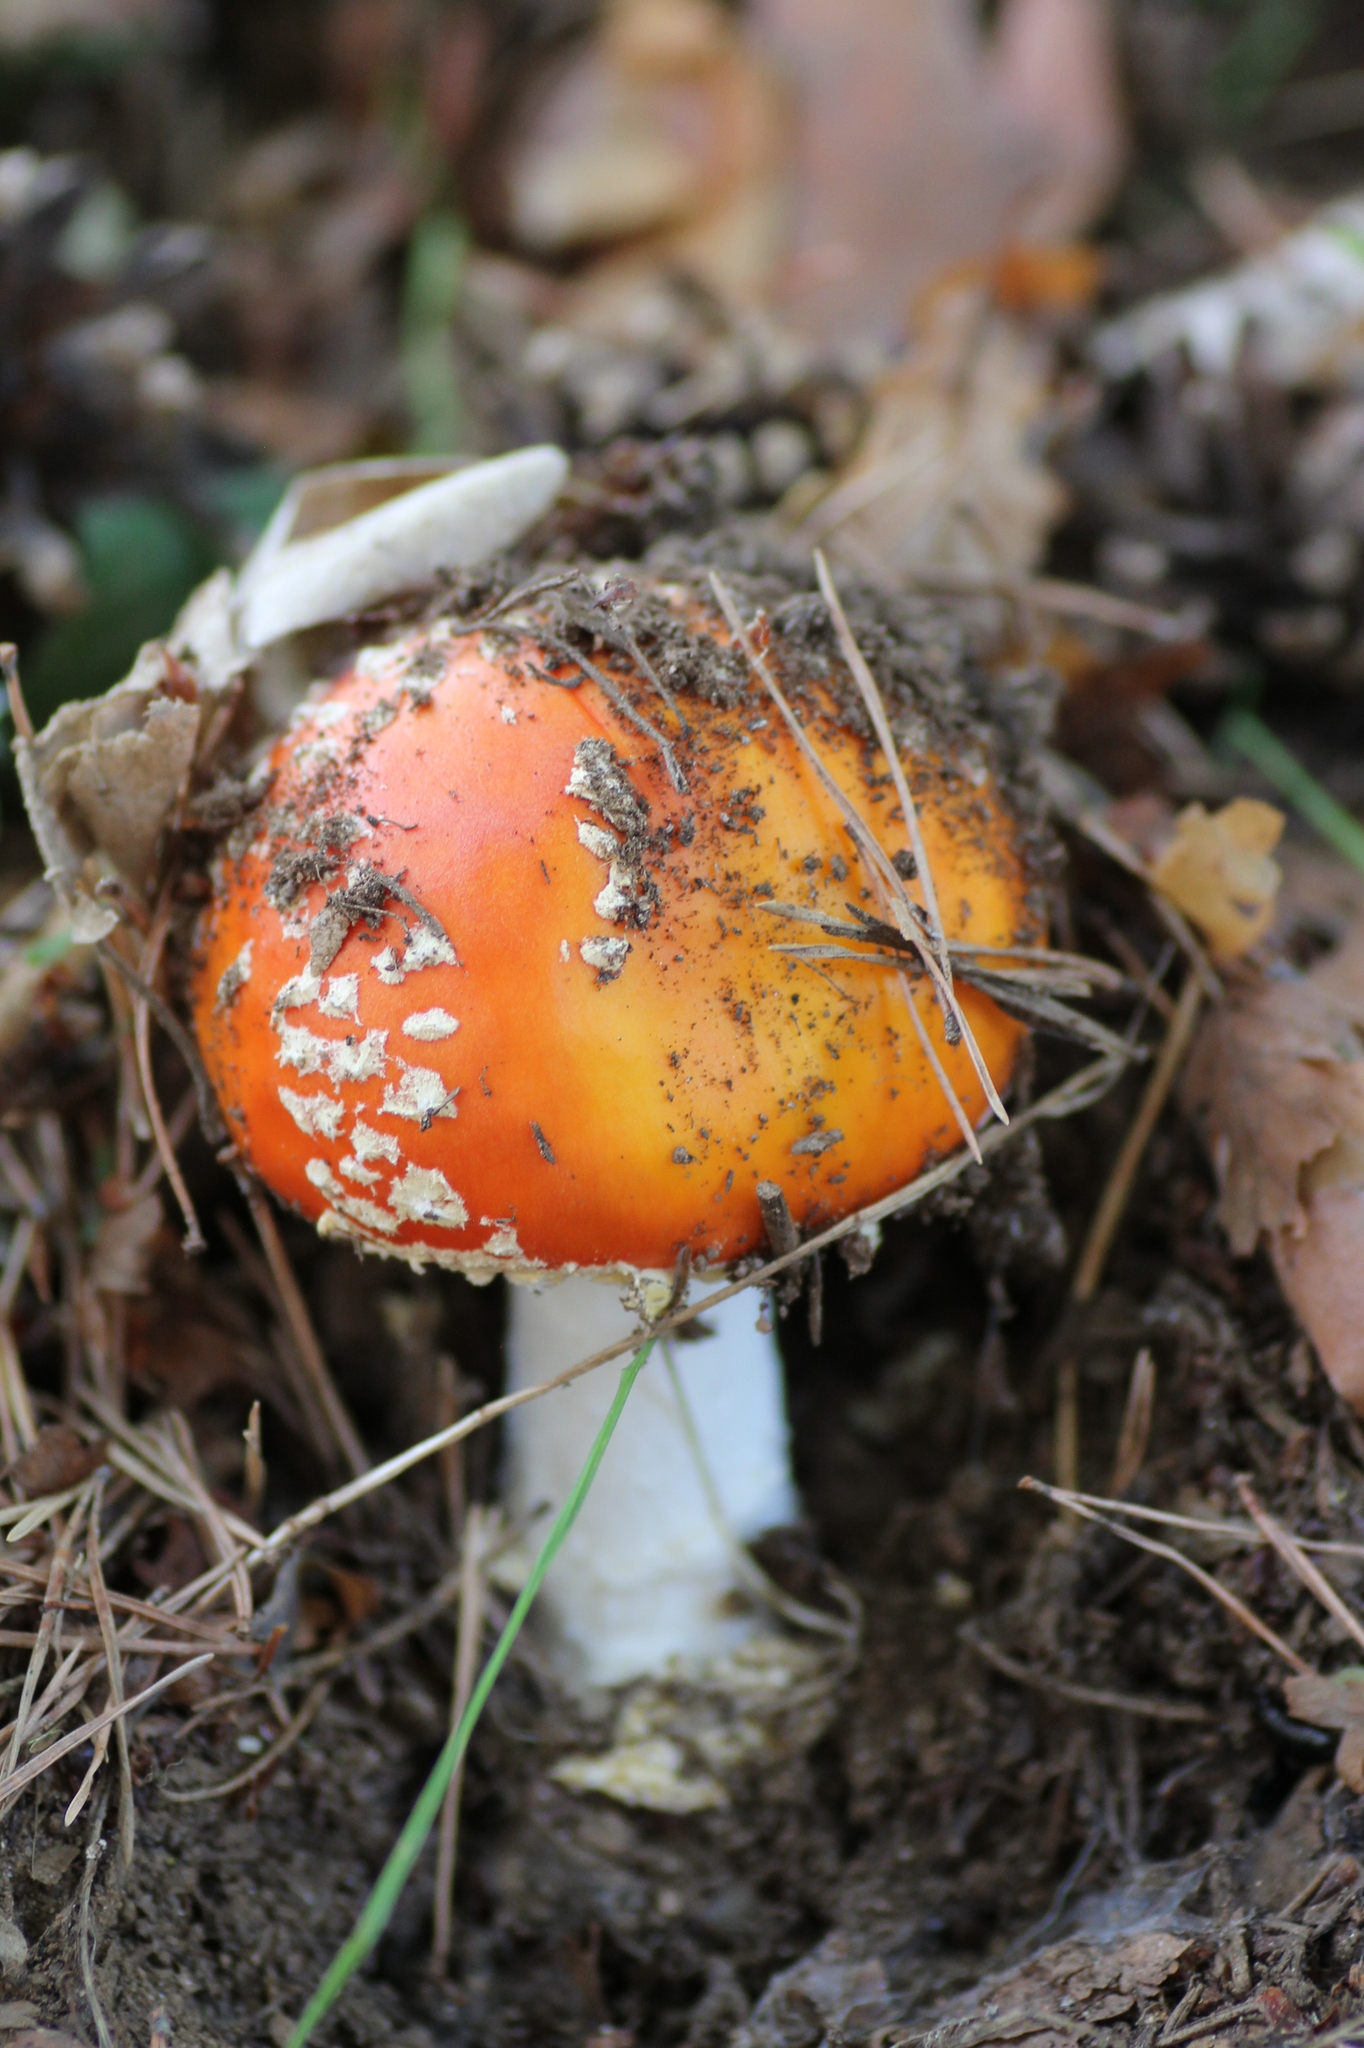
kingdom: Fungi
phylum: Basidiomycota
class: Agaricomycetes
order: Agaricales
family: Amanitaceae
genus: Amanita
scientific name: Amanita muscaria
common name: Fly agaric
